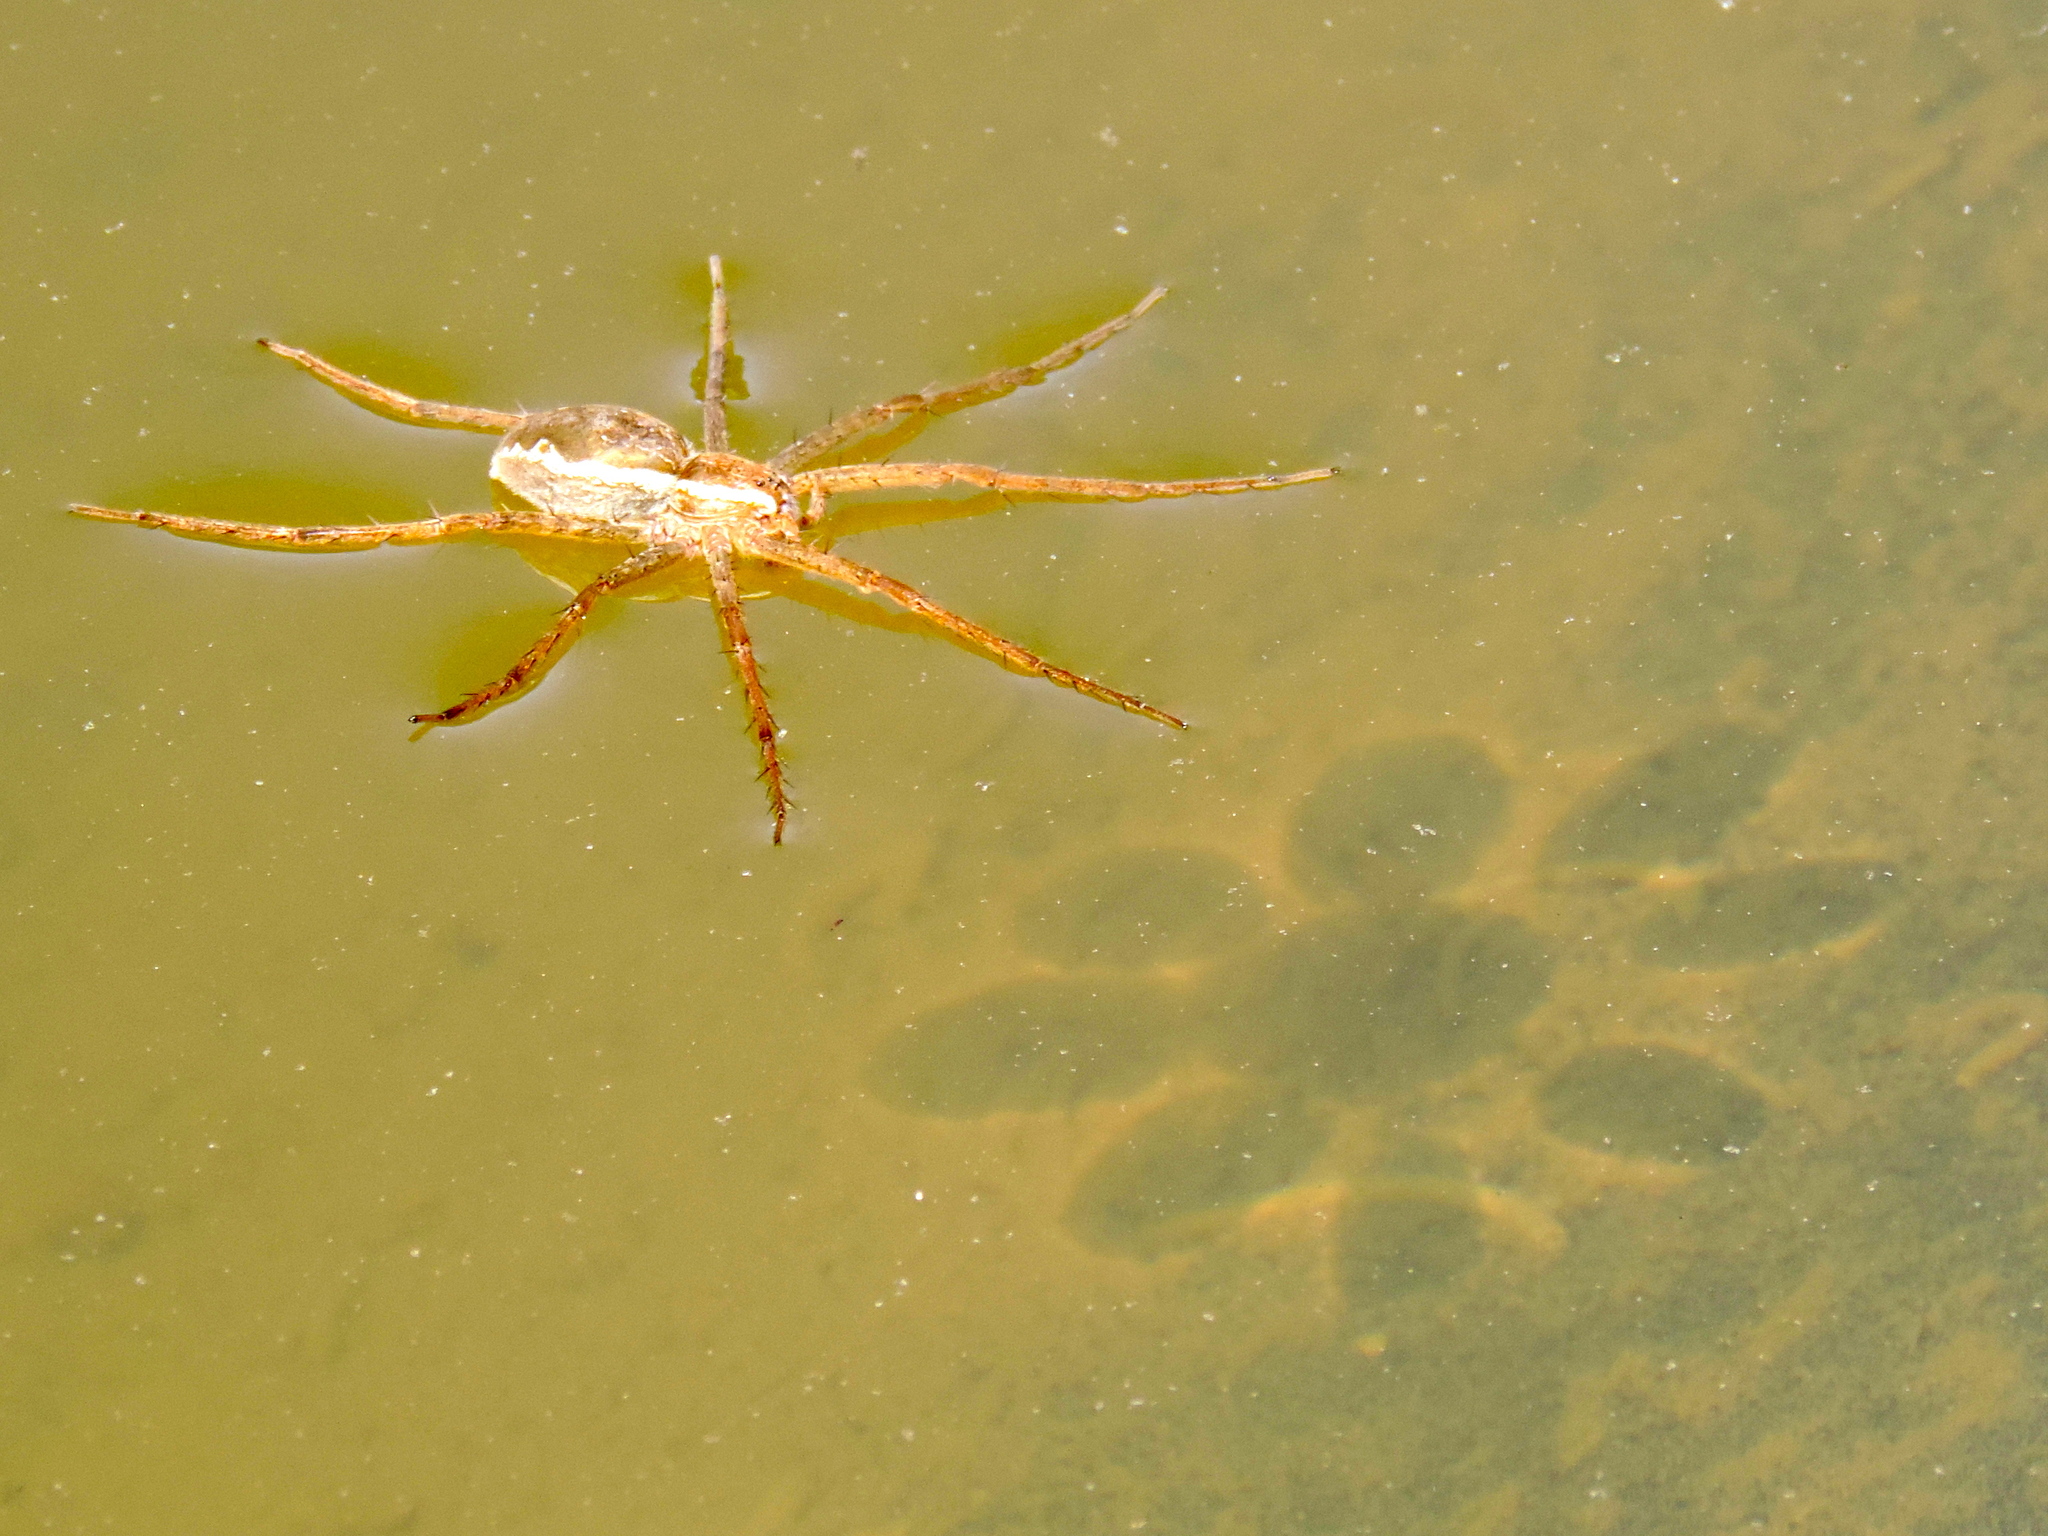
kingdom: Animalia
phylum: Arthropoda
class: Arachnida
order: Araneae
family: Pisauridae
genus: Tinus
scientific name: Tinus
